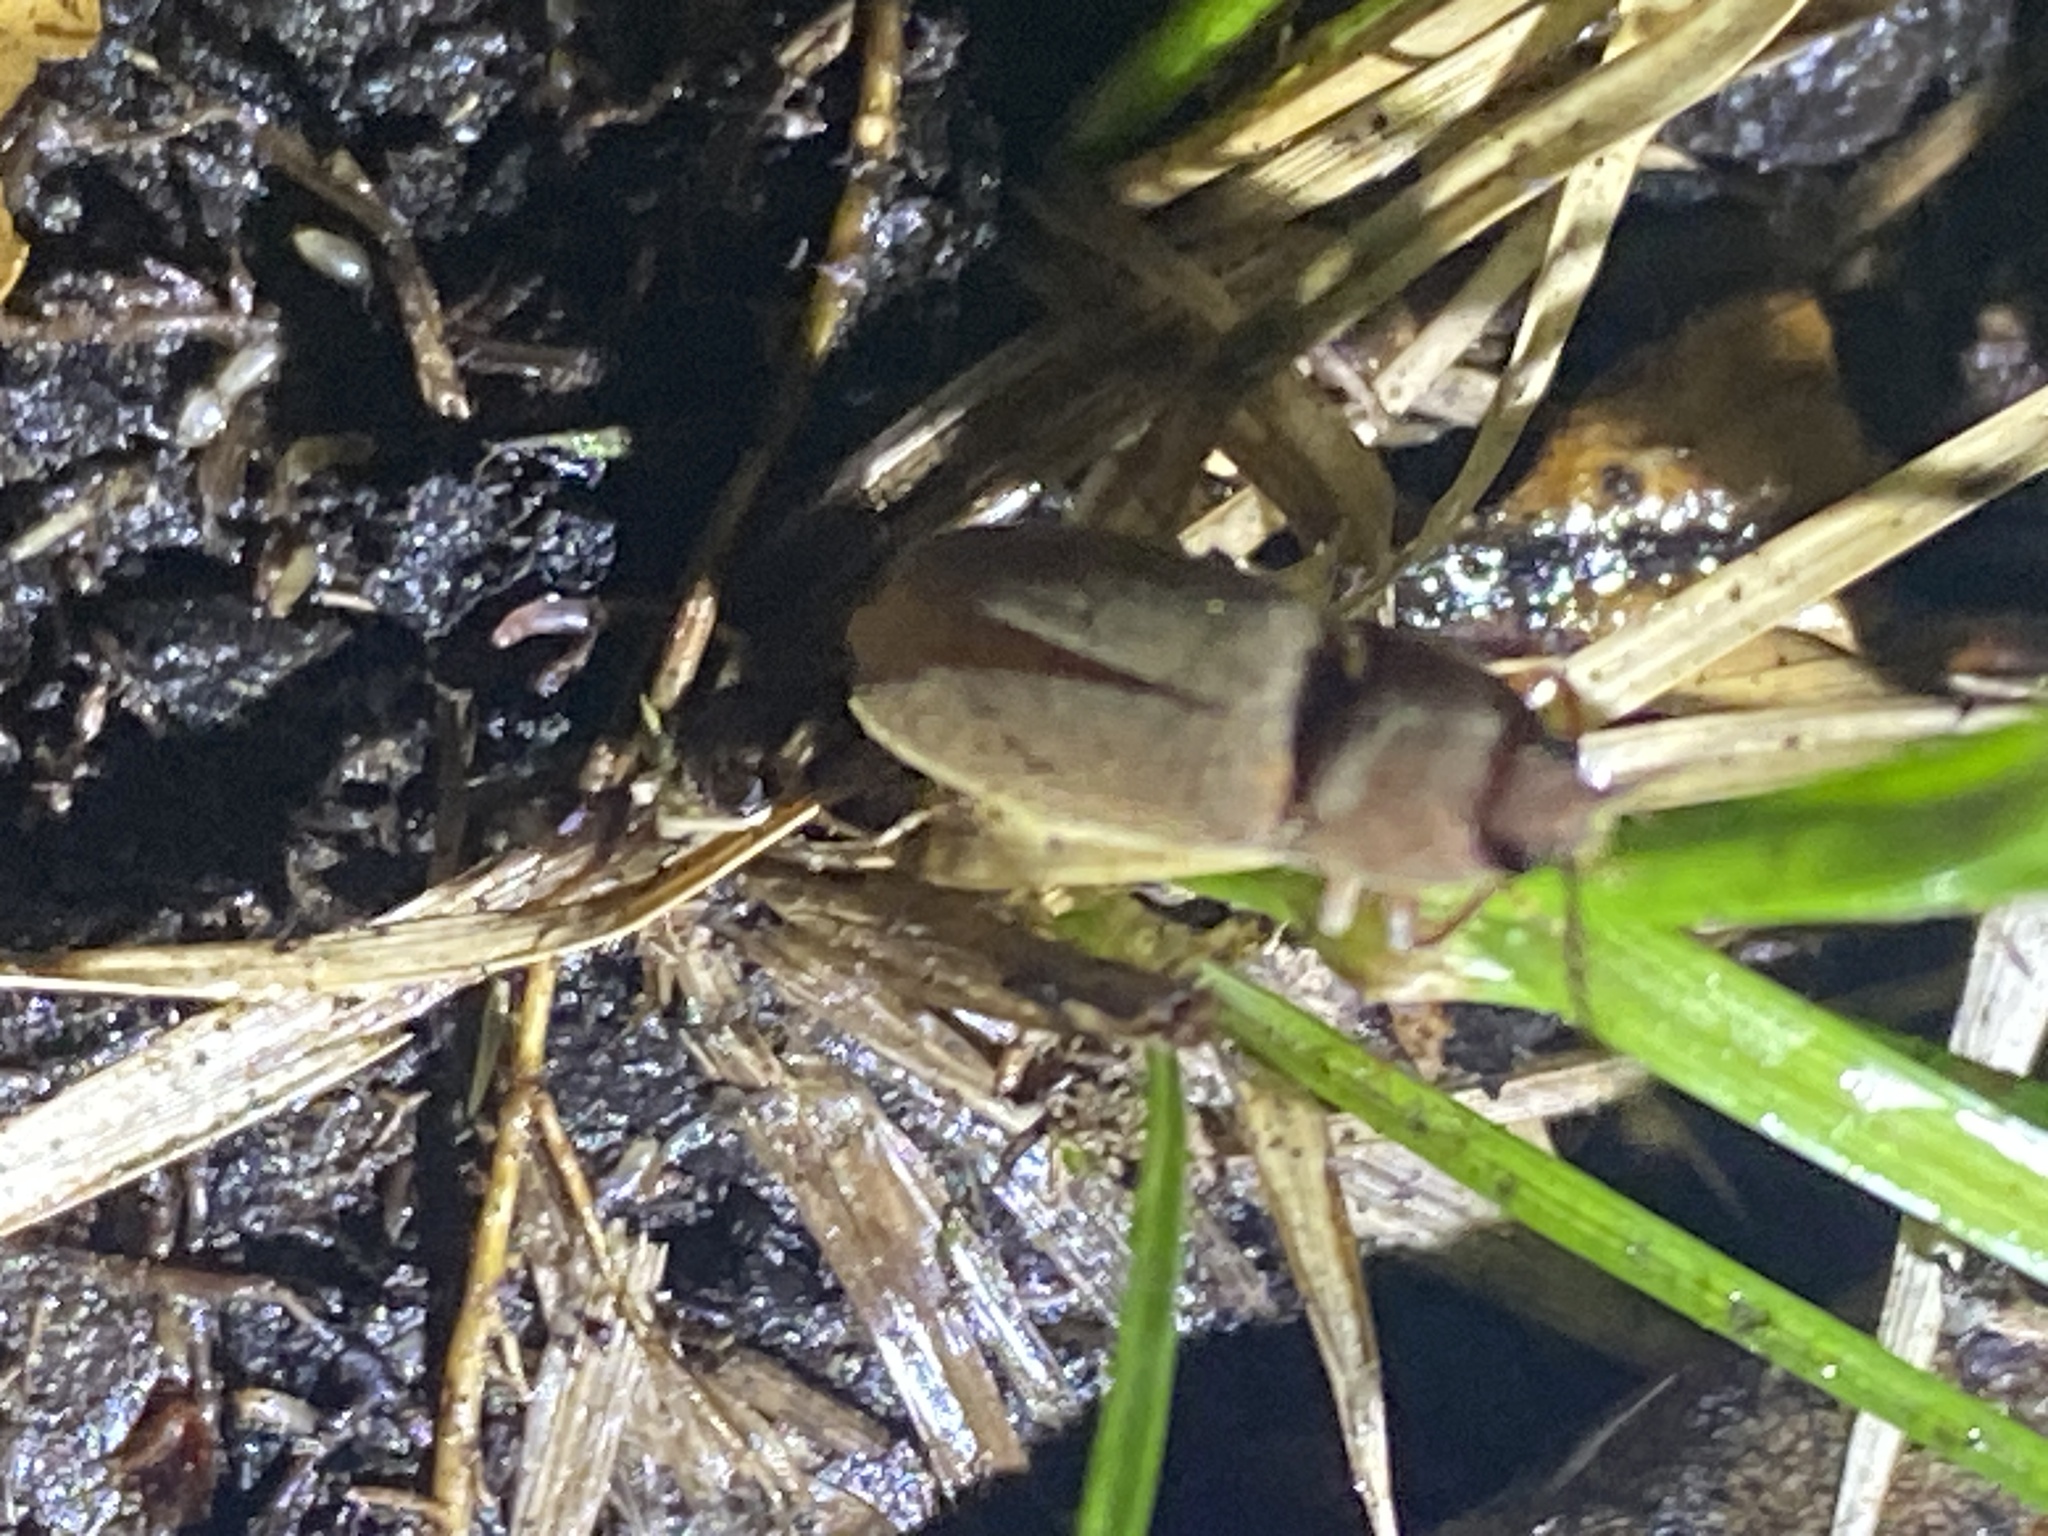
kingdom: Animalia
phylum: Arthropoda
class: Insecta
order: Coleoptera
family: Elateridae
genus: Conoderus
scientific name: Conoderus exsul
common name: Click beetle
